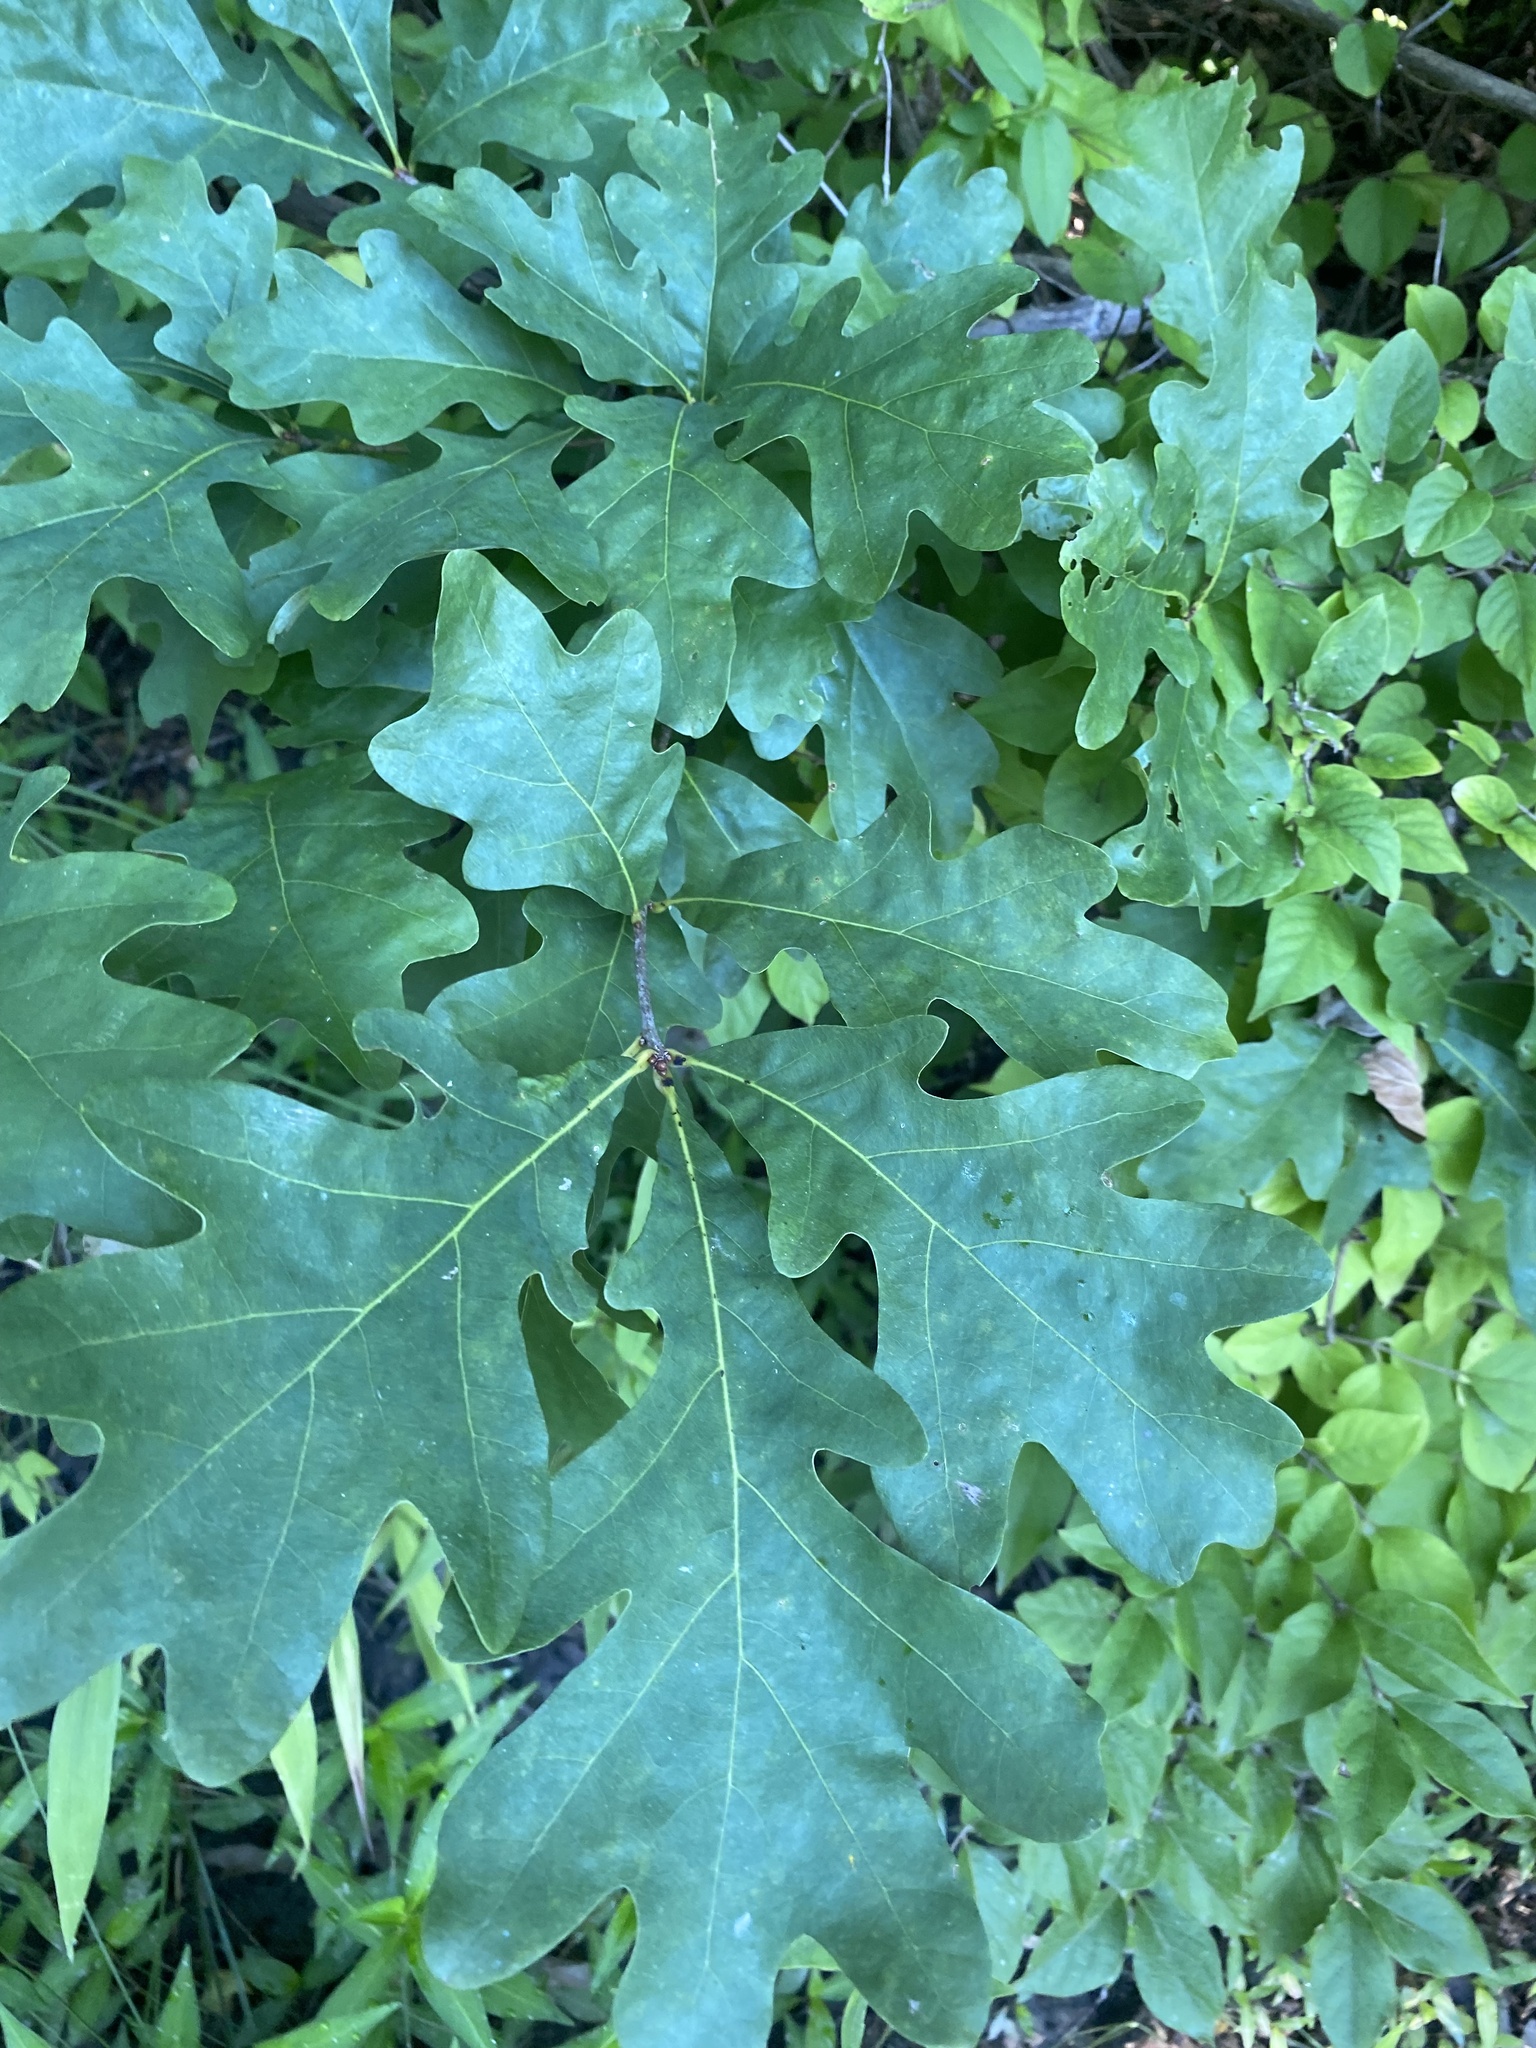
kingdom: Plantae
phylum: Tracheophyta
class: Magnoliopsida
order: Fagales
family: Fagaceae
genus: Quercus
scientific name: Quercus alba
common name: White oak
